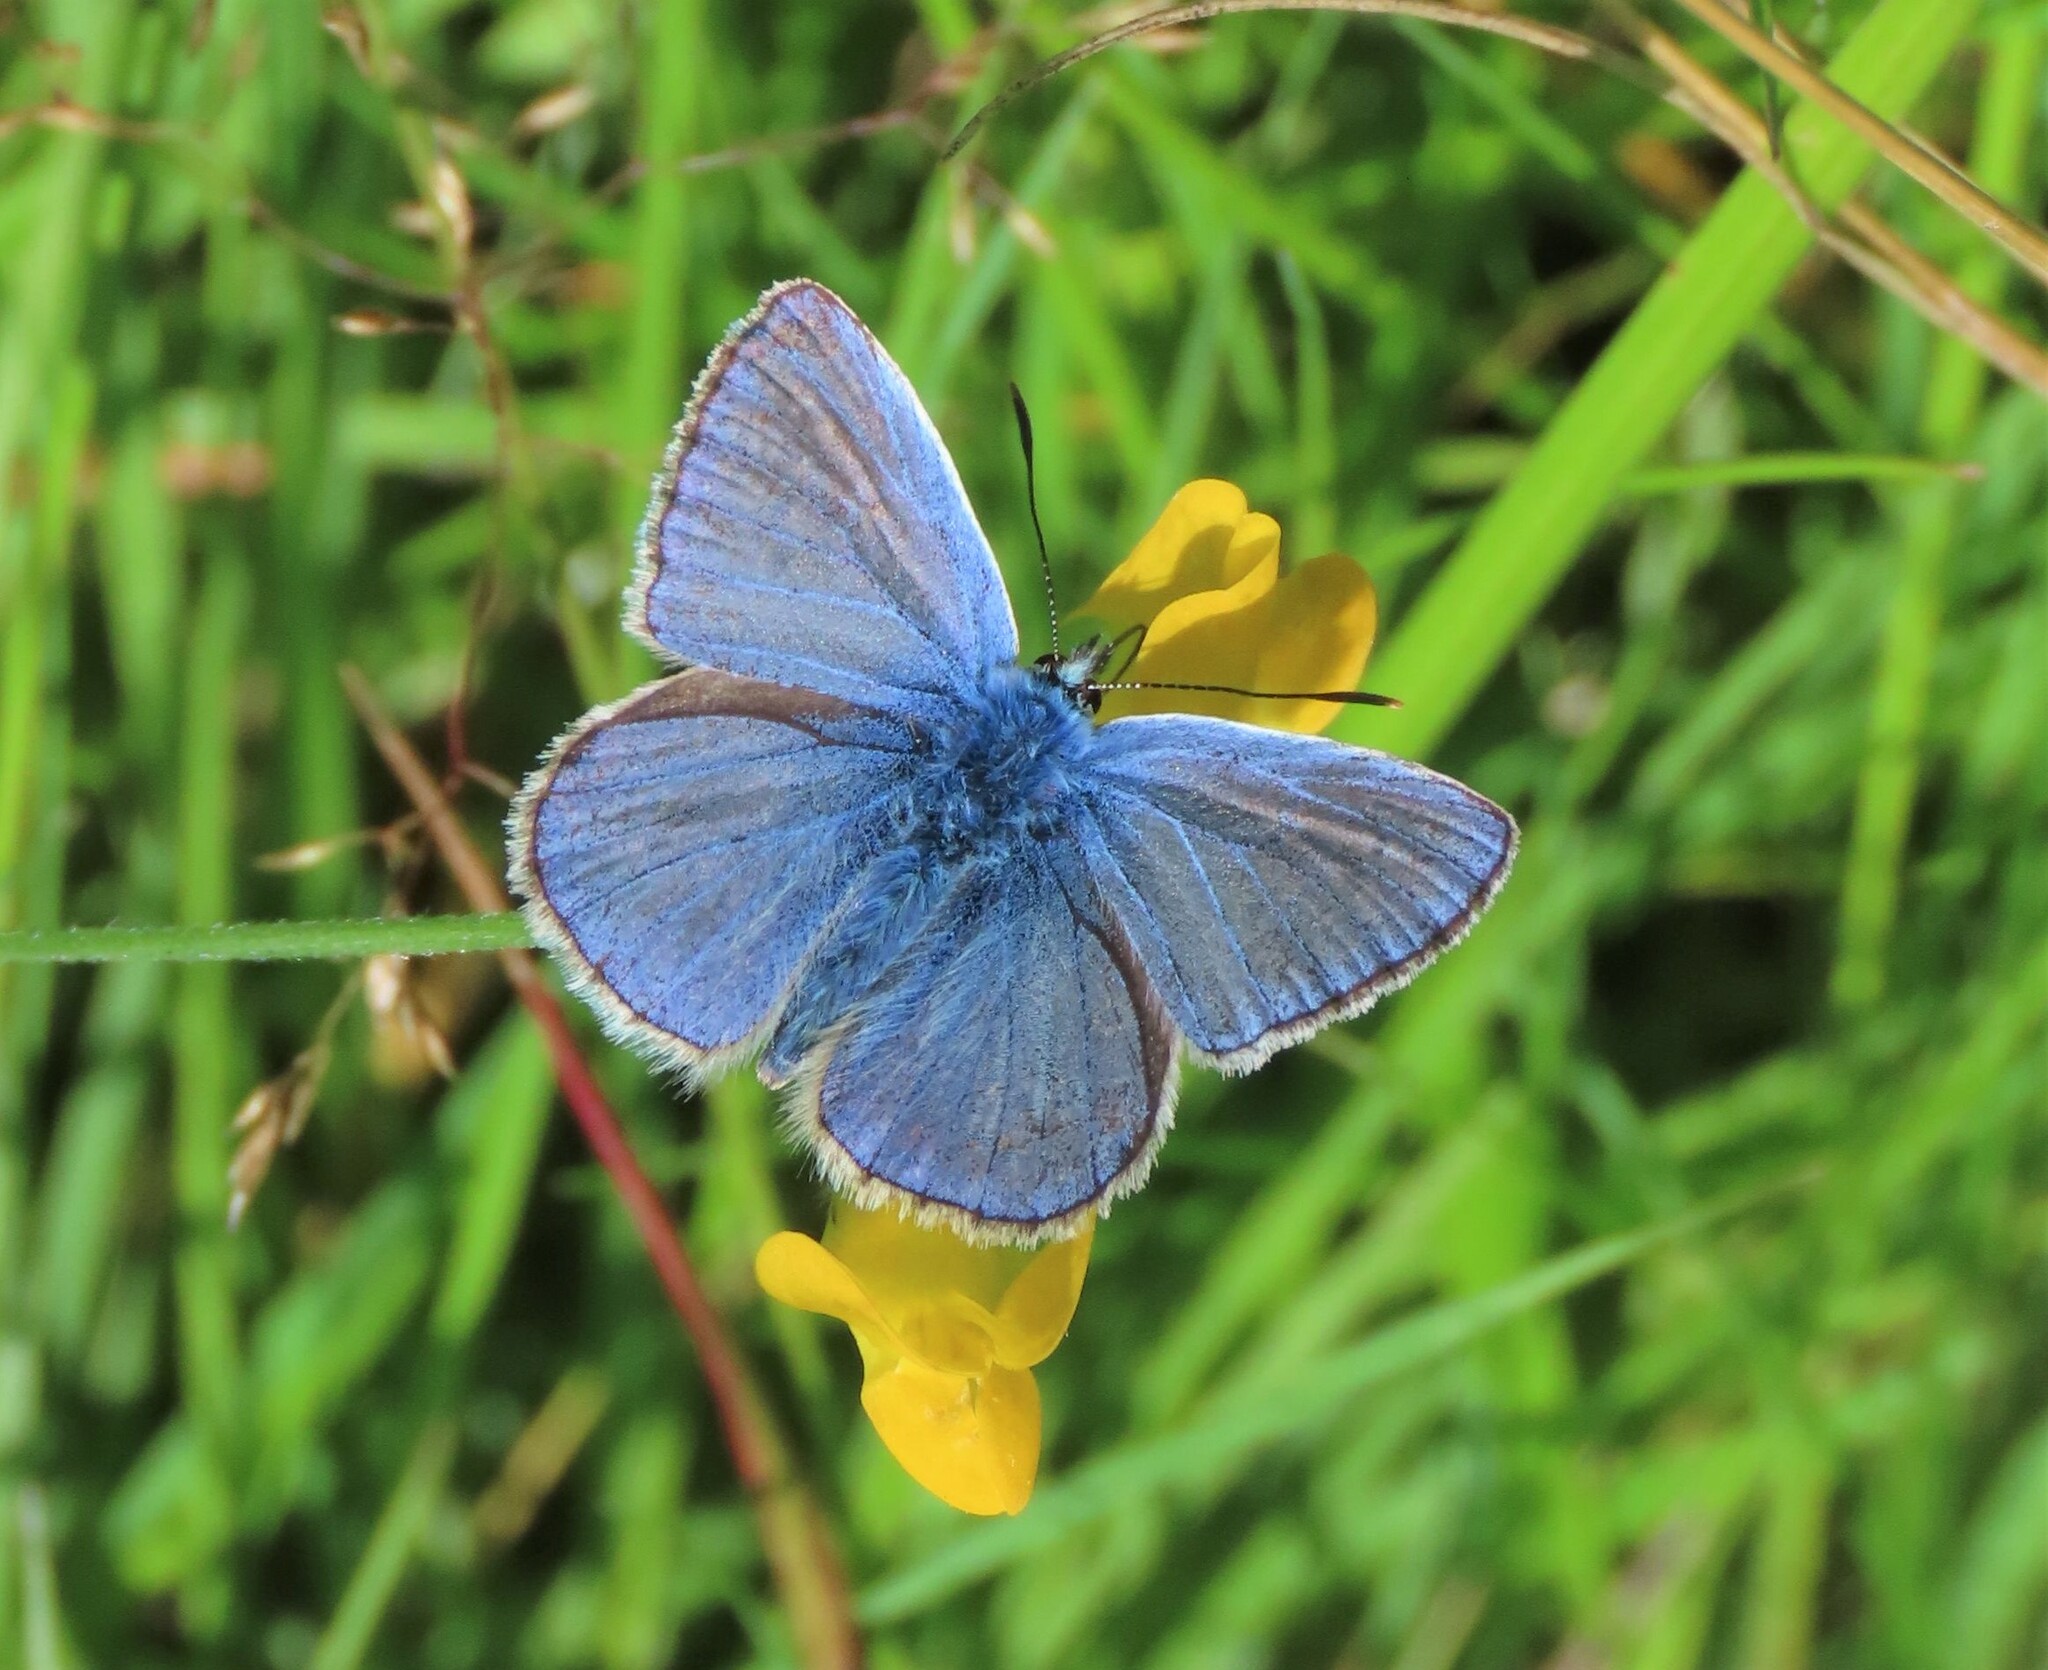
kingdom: Animalia
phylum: Arthropoda
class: Insecta
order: Lepidoptera
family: Lycaenidae
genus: Polyommatus
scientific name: Polyommatus icarus
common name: Common blue
